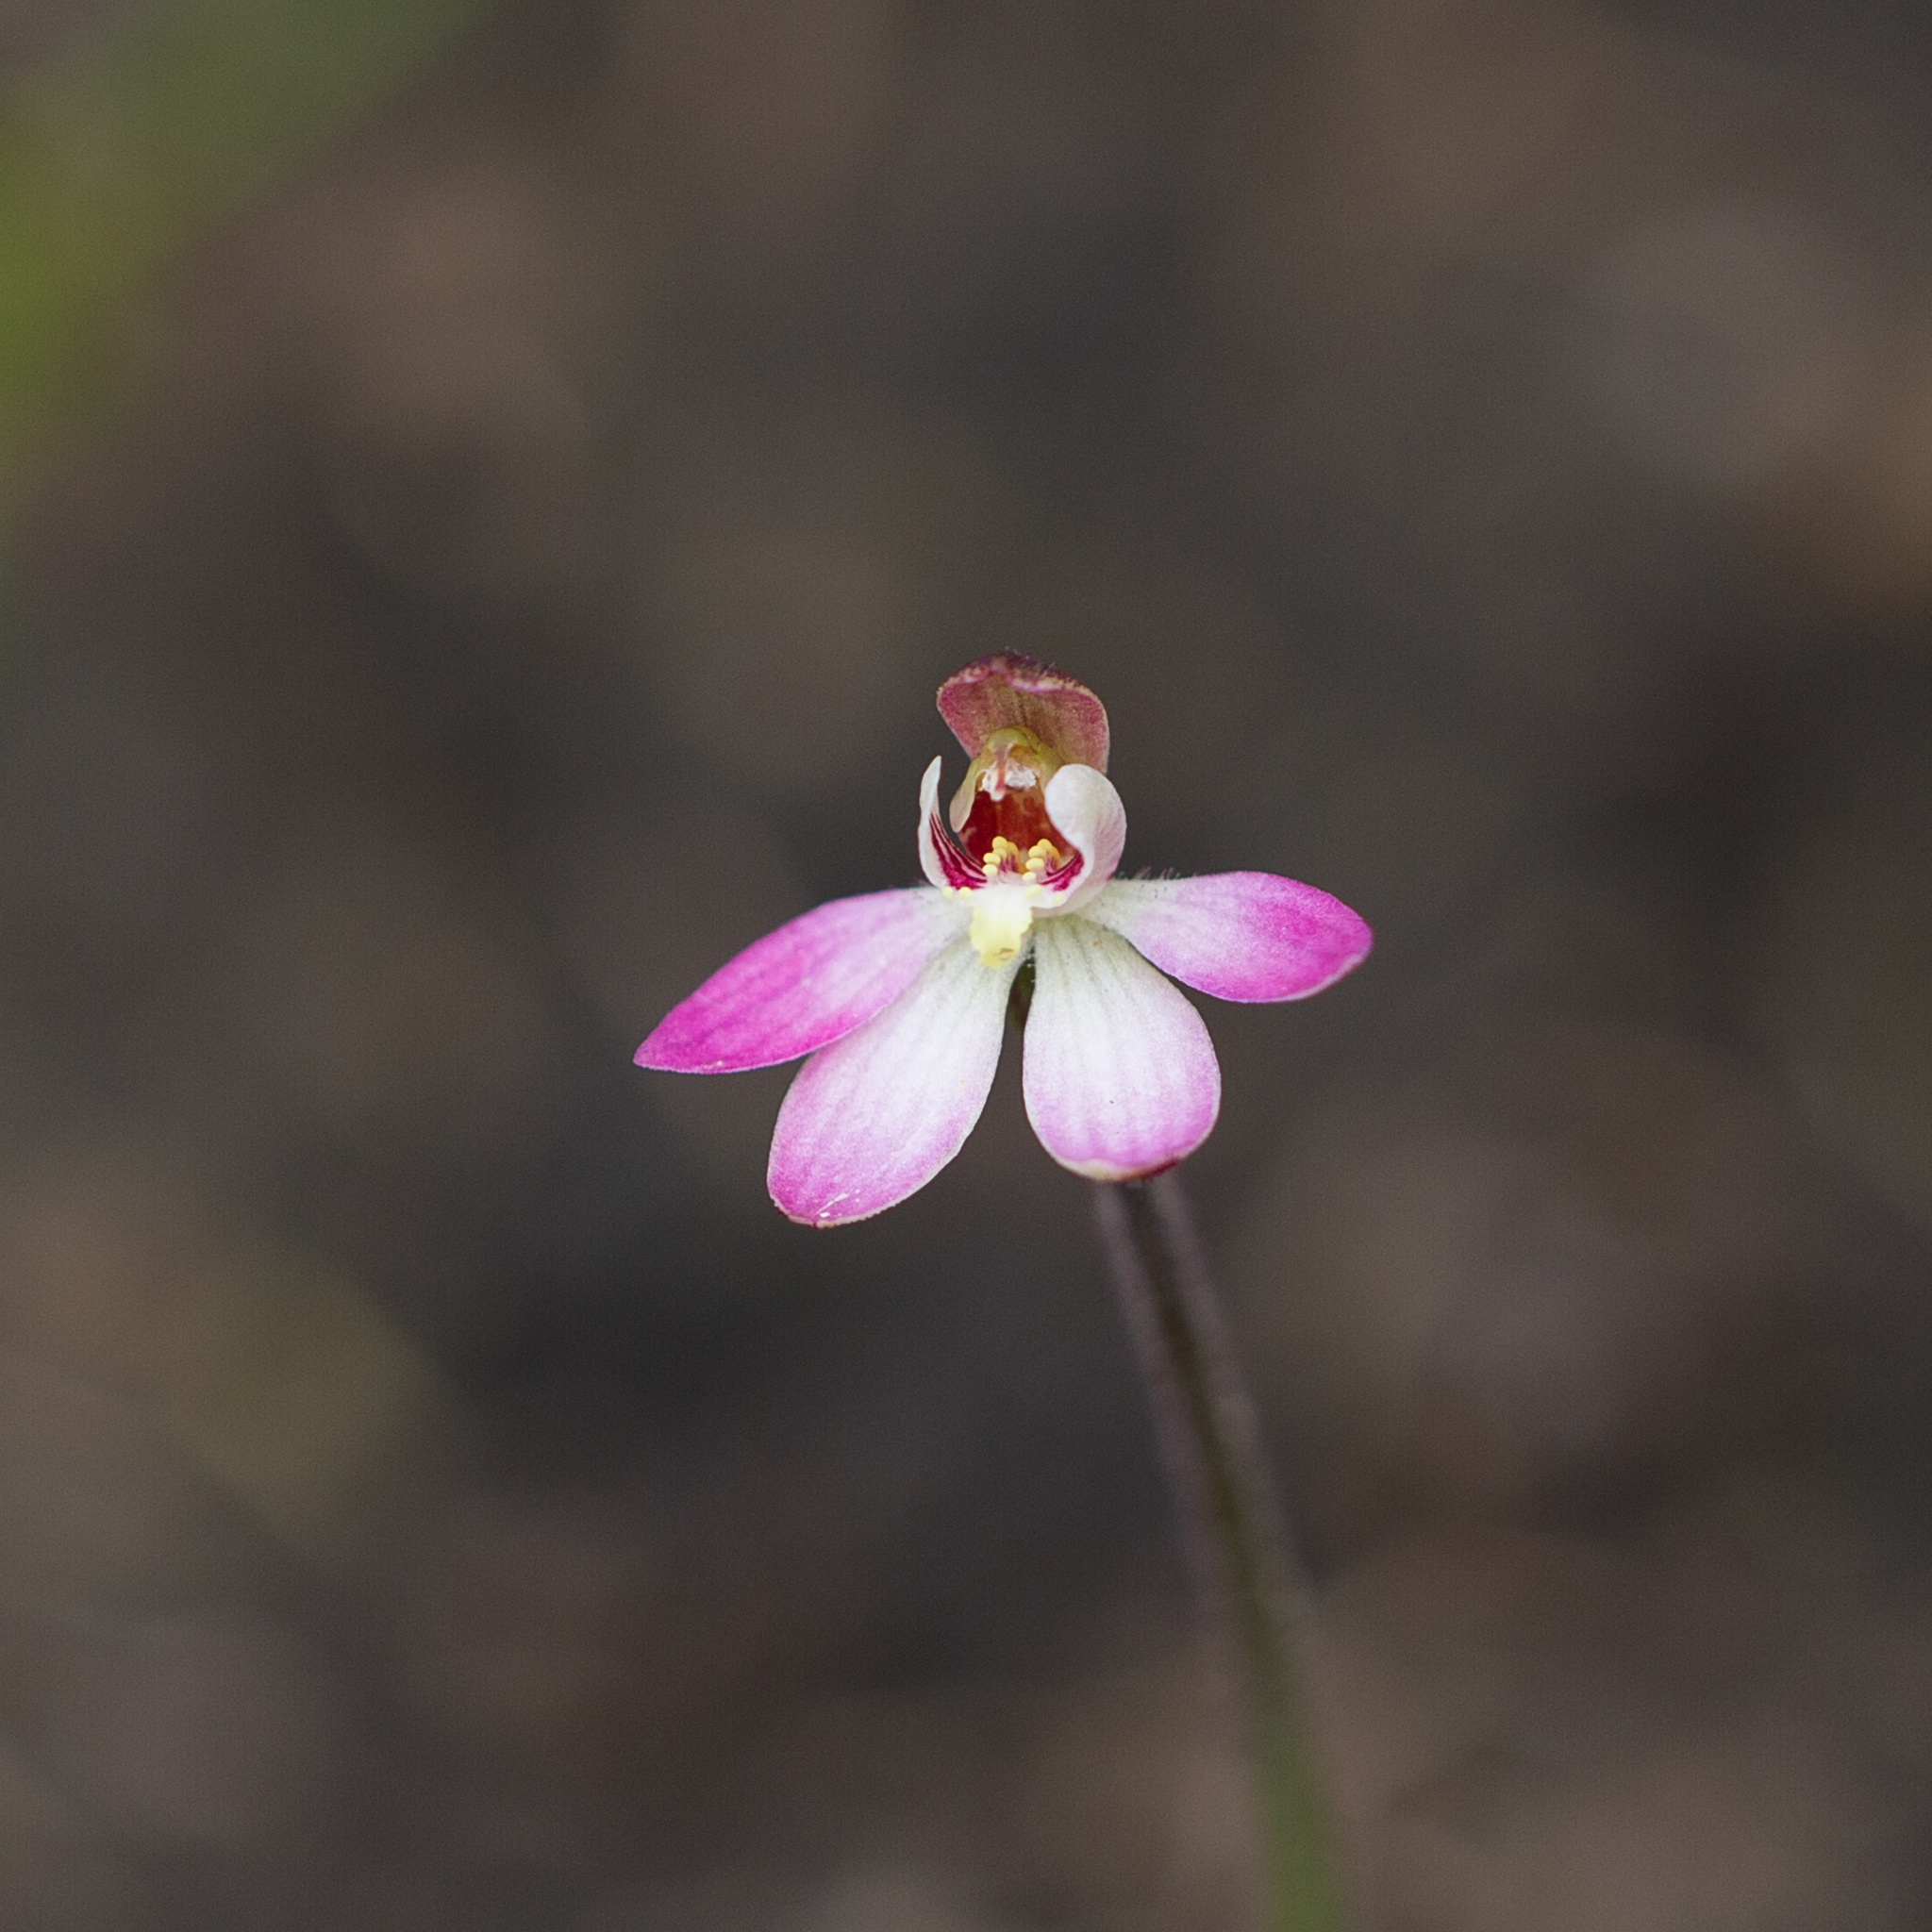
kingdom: Plantae
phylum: Tracheophyta
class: Liliopsida
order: Asparagales
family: Orchidaceae
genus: Caladenia
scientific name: Caladenia pusilla
